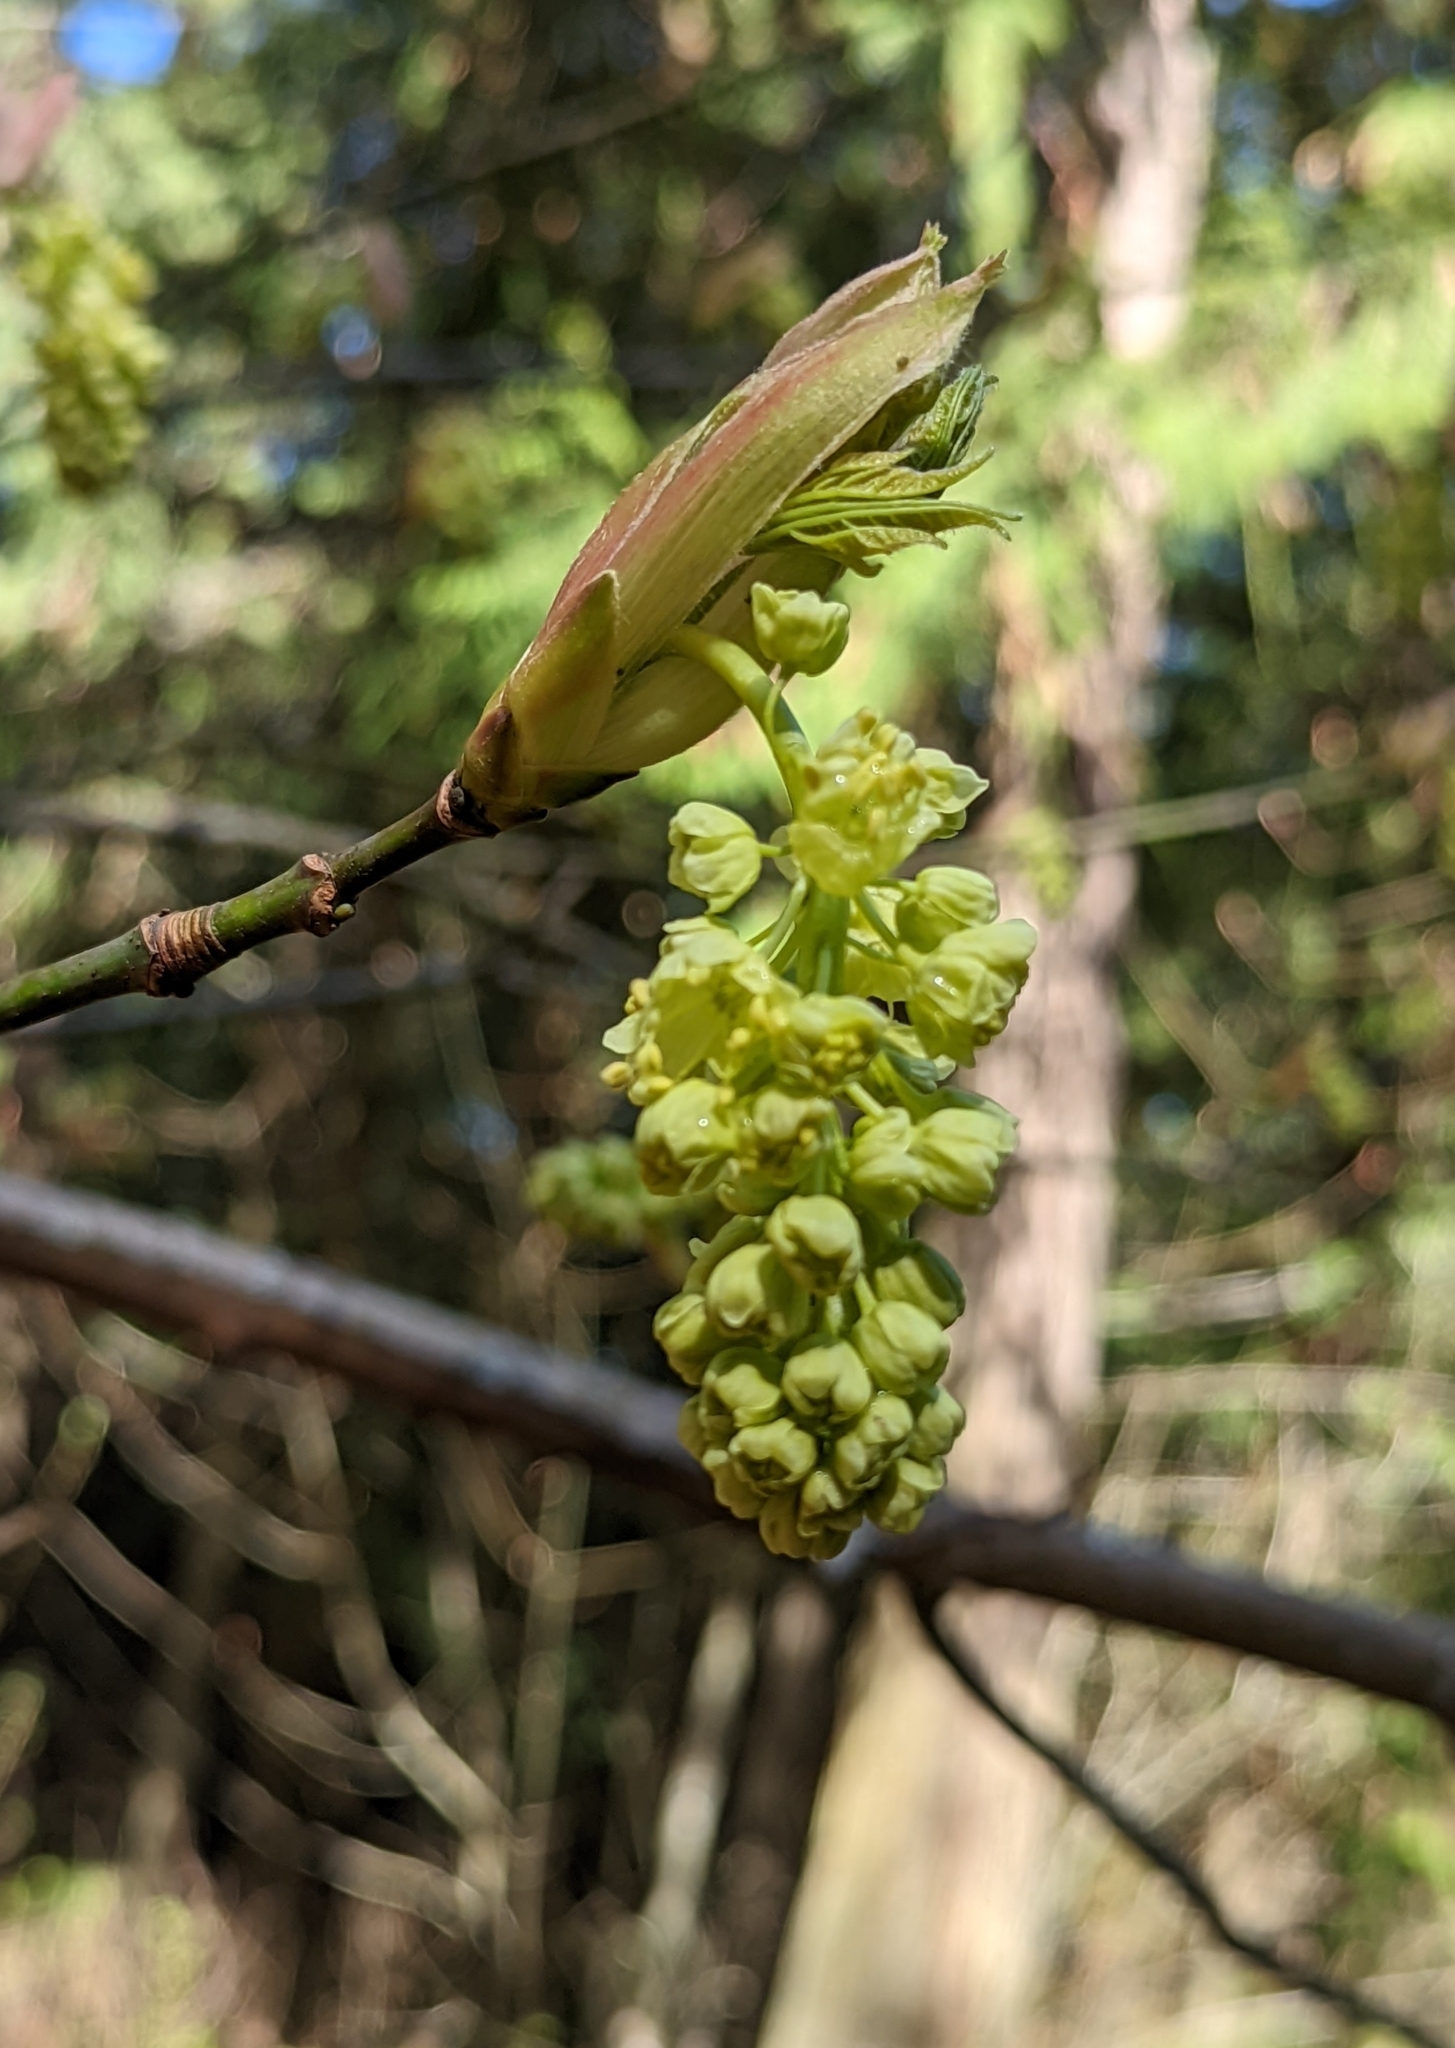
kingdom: Plantae
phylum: Tracheophyta
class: Magnoliopsida
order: Sapindales
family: Sapindaceae
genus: Acer
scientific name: Acer macrophyllum
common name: Oregon maple
